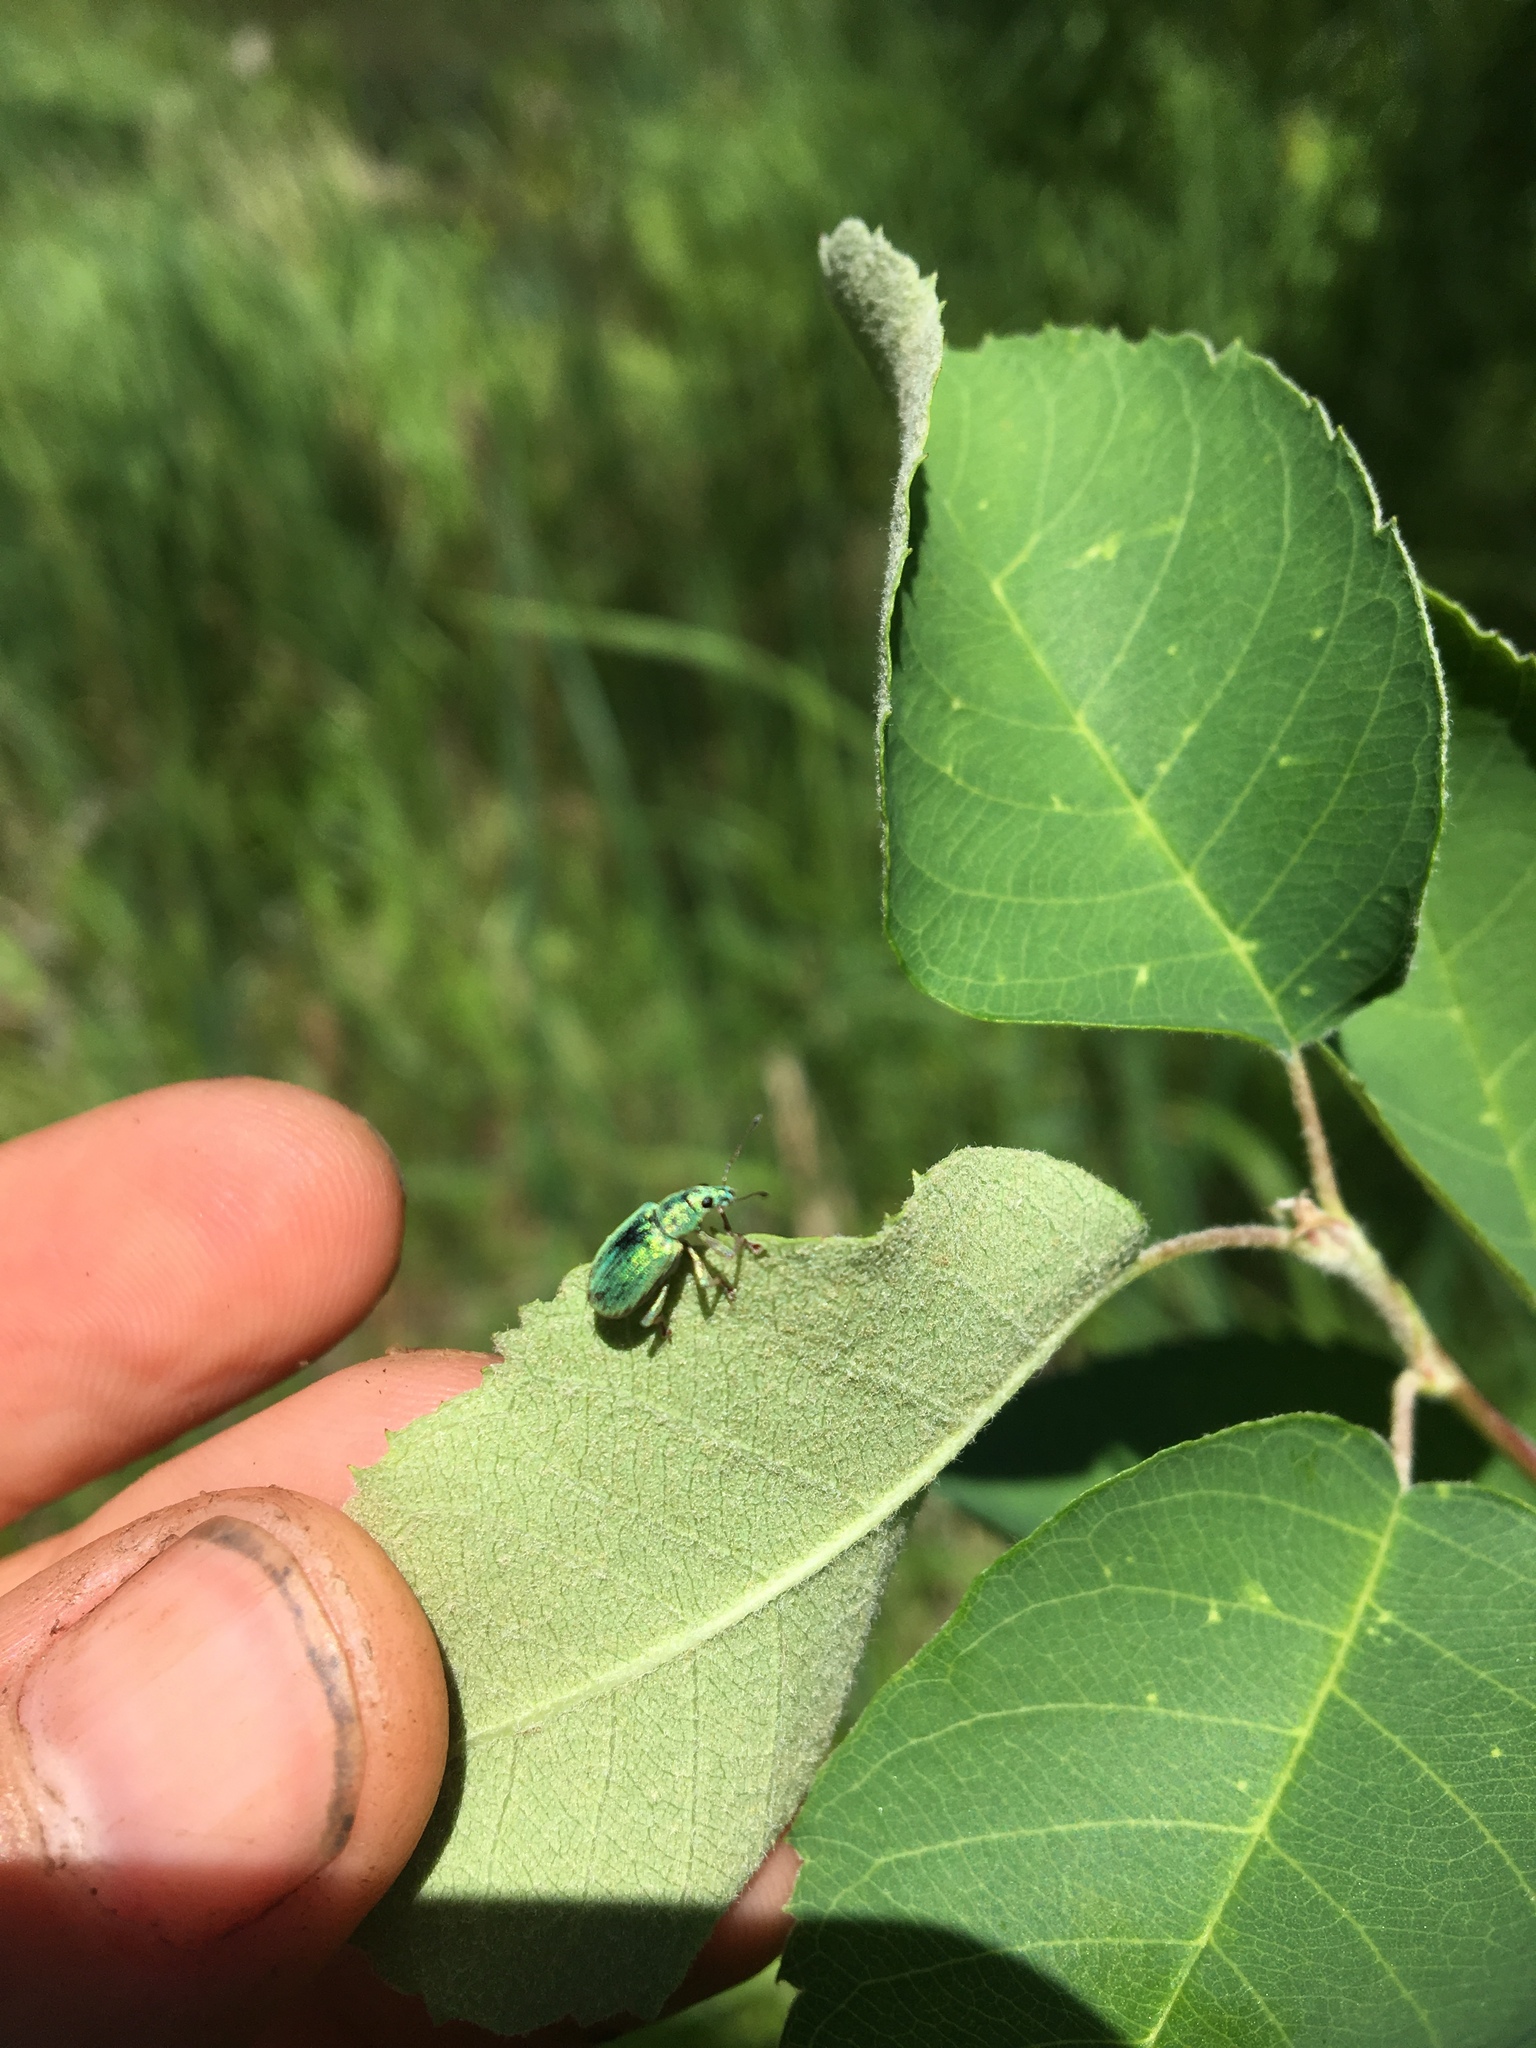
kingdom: Animalia
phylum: Arthropoda
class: Insecta
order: Coleoptera
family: Curculionidae
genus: Polydrusus
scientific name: Polydrusus formosus
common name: Weevil
